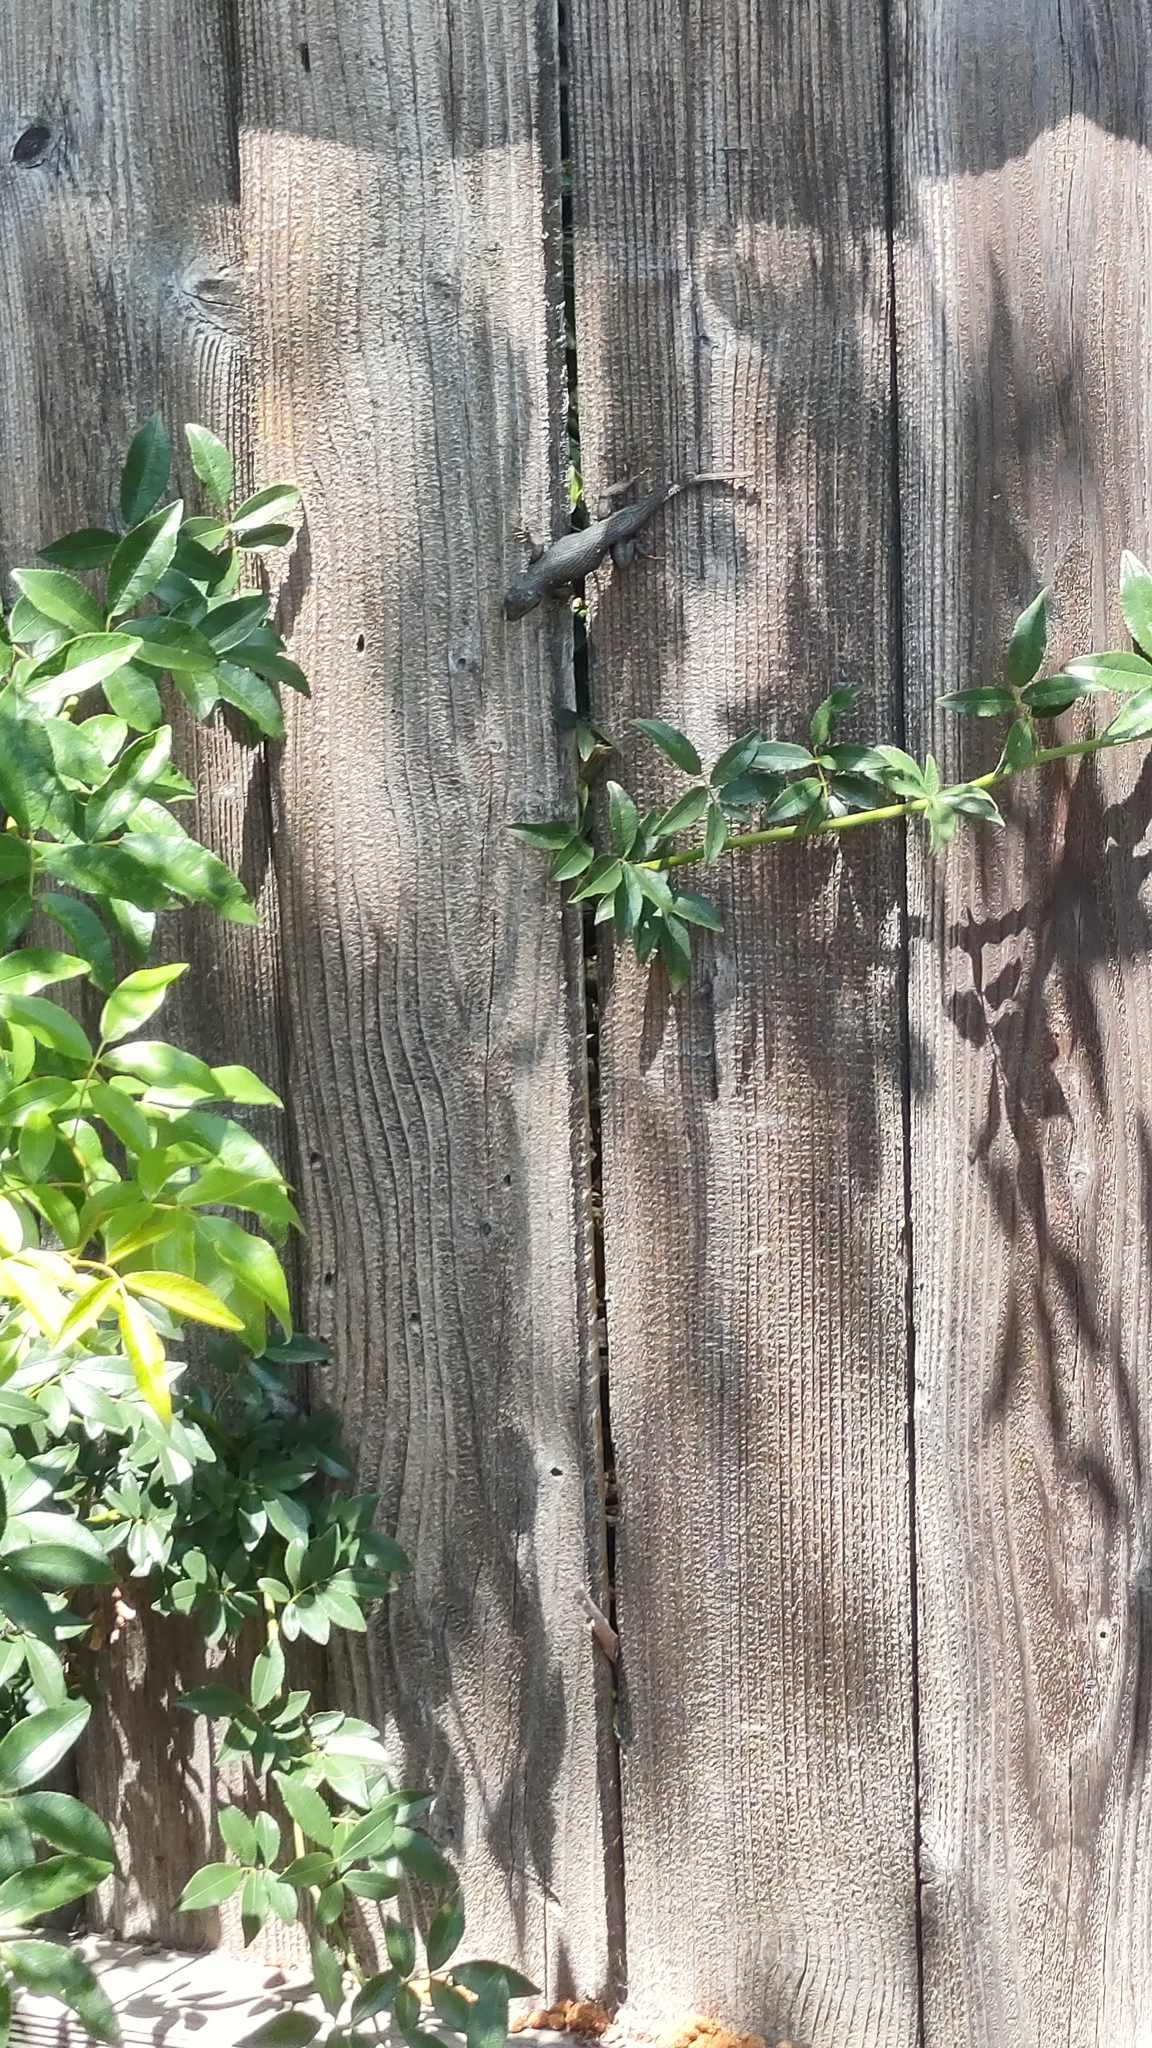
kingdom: Animalia
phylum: Chordata
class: Squamata
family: Phrynosomatidae
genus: Sceloporus
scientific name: Sceloporus occidentalis
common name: Western fence lizard
